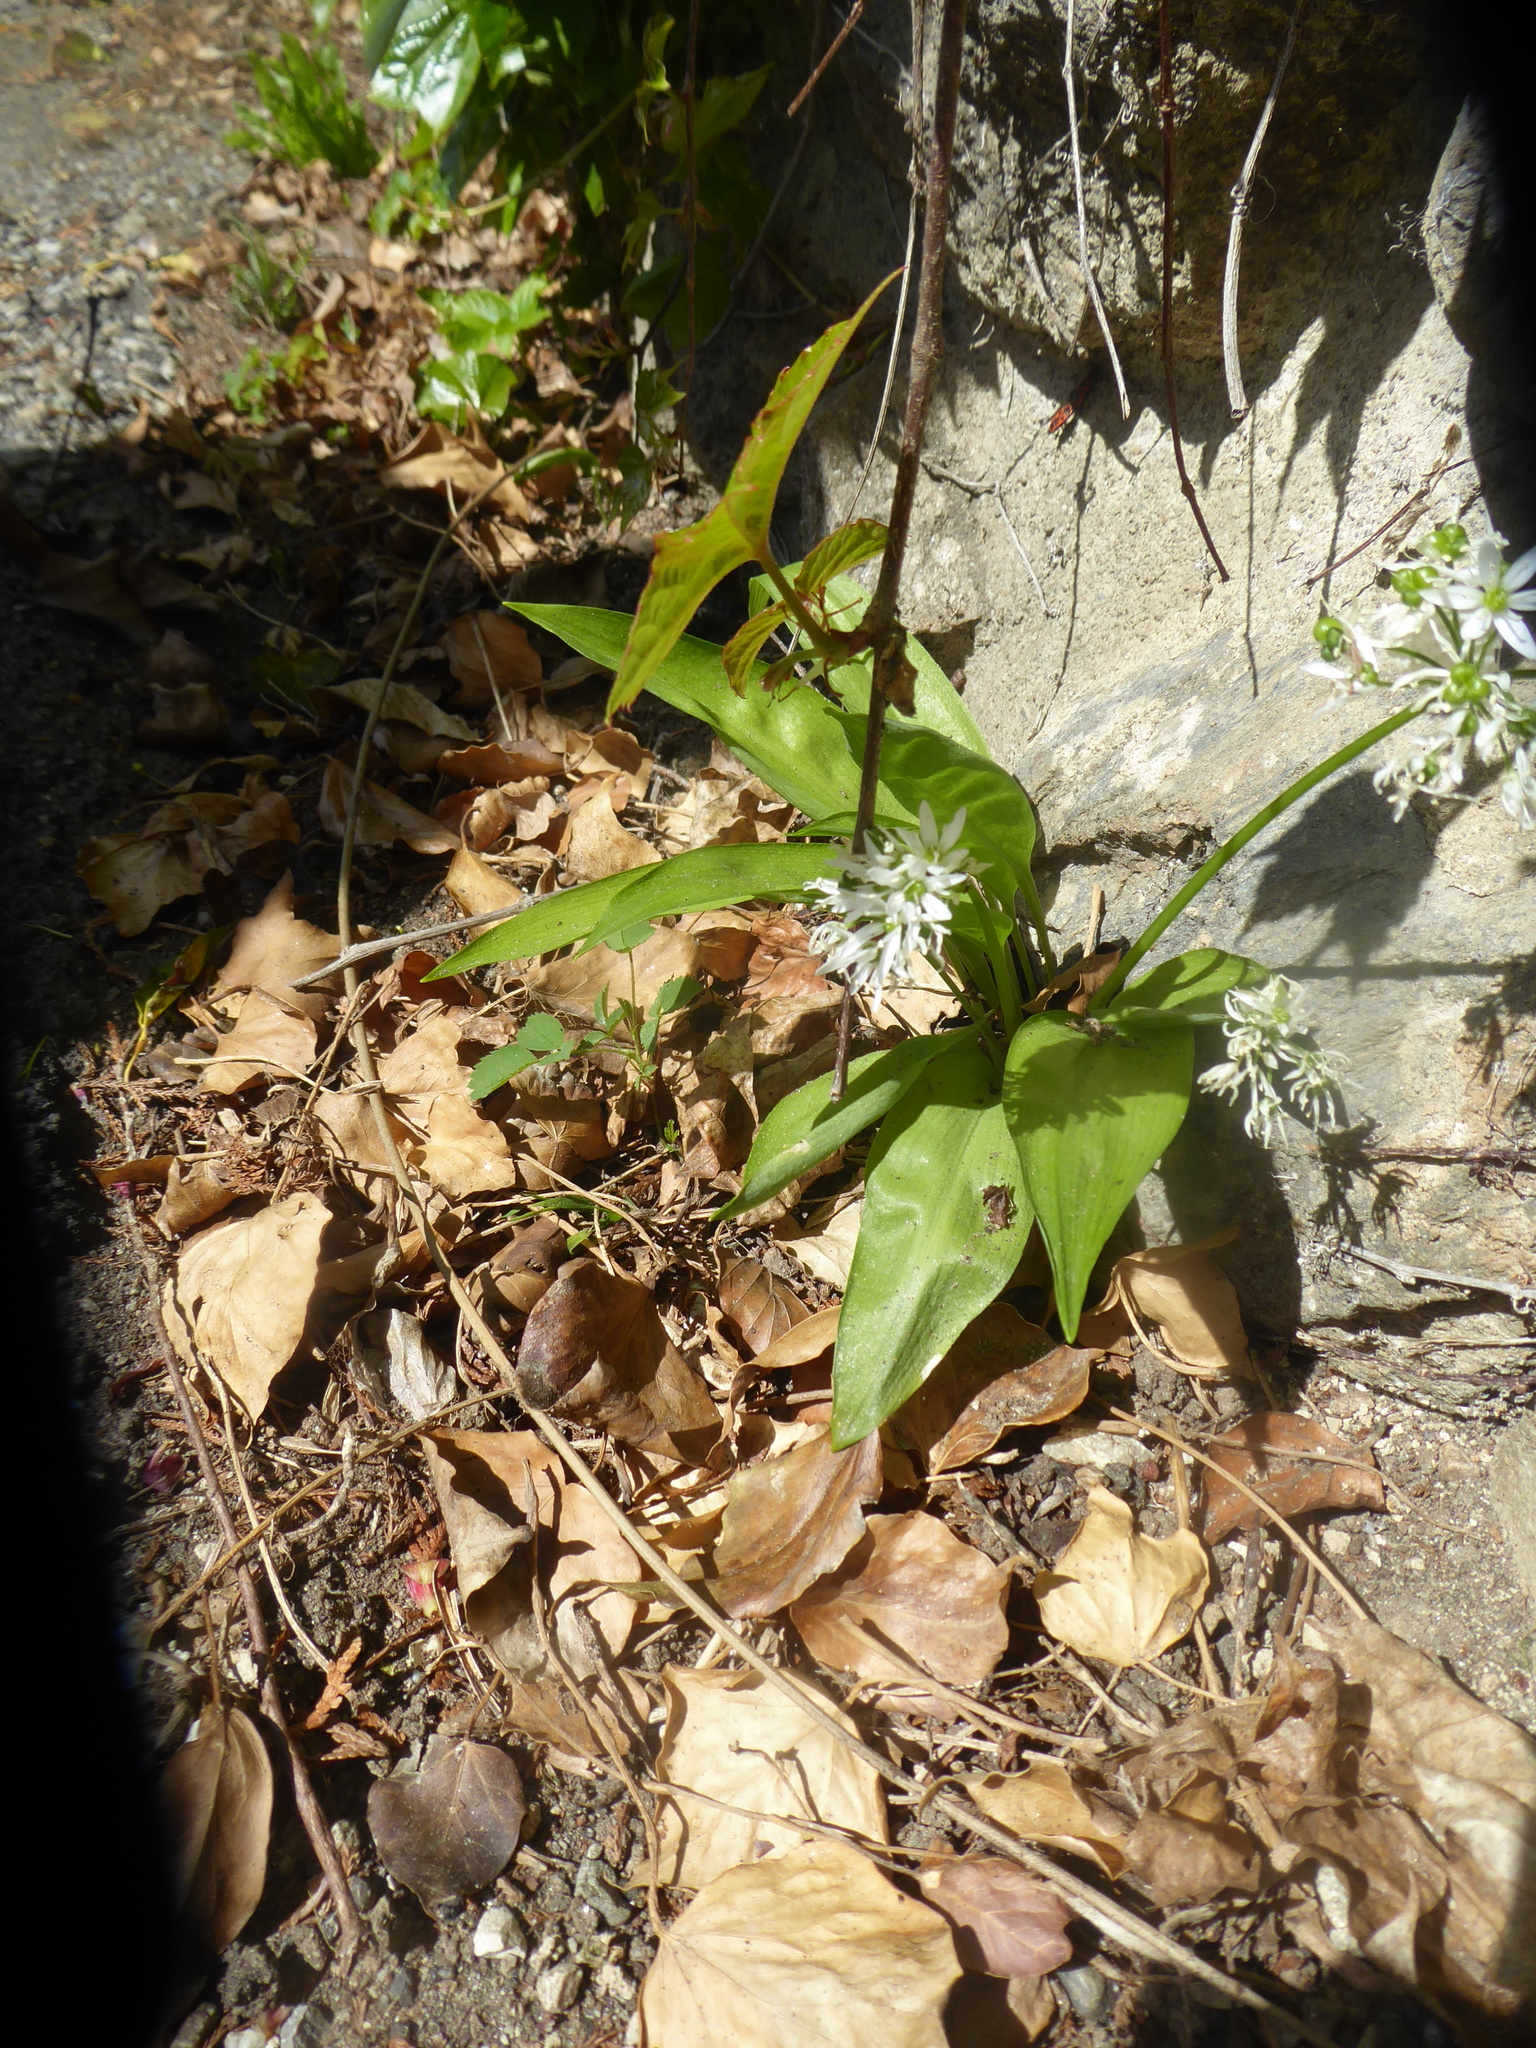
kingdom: Plantae
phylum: Tracheophyta
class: Liliopsida
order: Asparagales
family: Amaryllidaceae
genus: Allium
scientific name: Allium ursinum
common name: Ramsons
